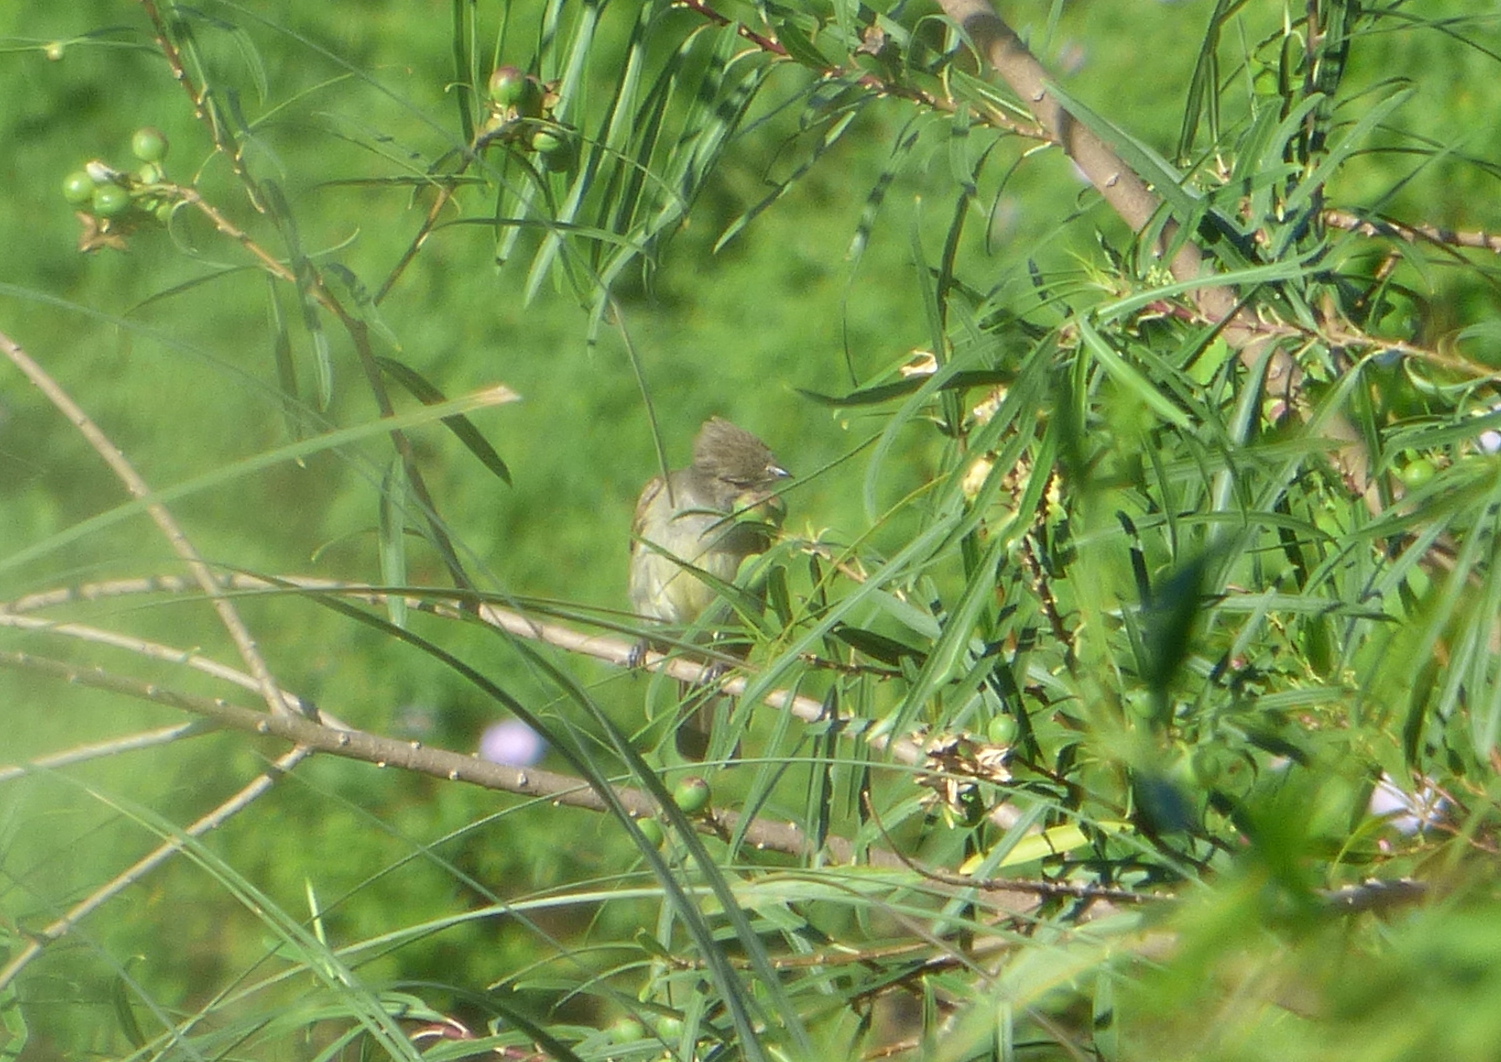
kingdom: Animalia
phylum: Chordata
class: Aves
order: Passeriformes
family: Tyrannidae
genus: Elaenia
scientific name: Elaenia spectabilis
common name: Large elaenia
